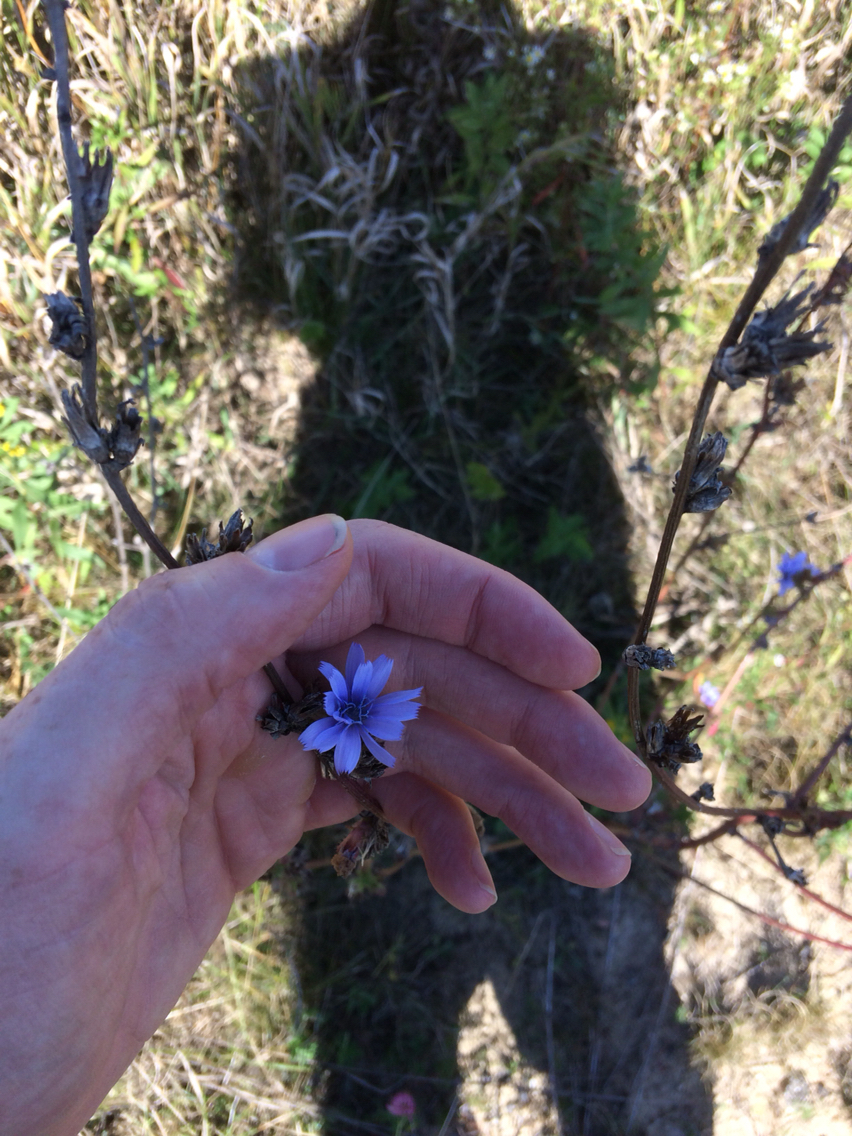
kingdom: Plantae
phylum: Tracheophyta
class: Magnoliopsida
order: Asterales
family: Asteraceae
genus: Cichorium
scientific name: Cichorium intybus
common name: Chicory
